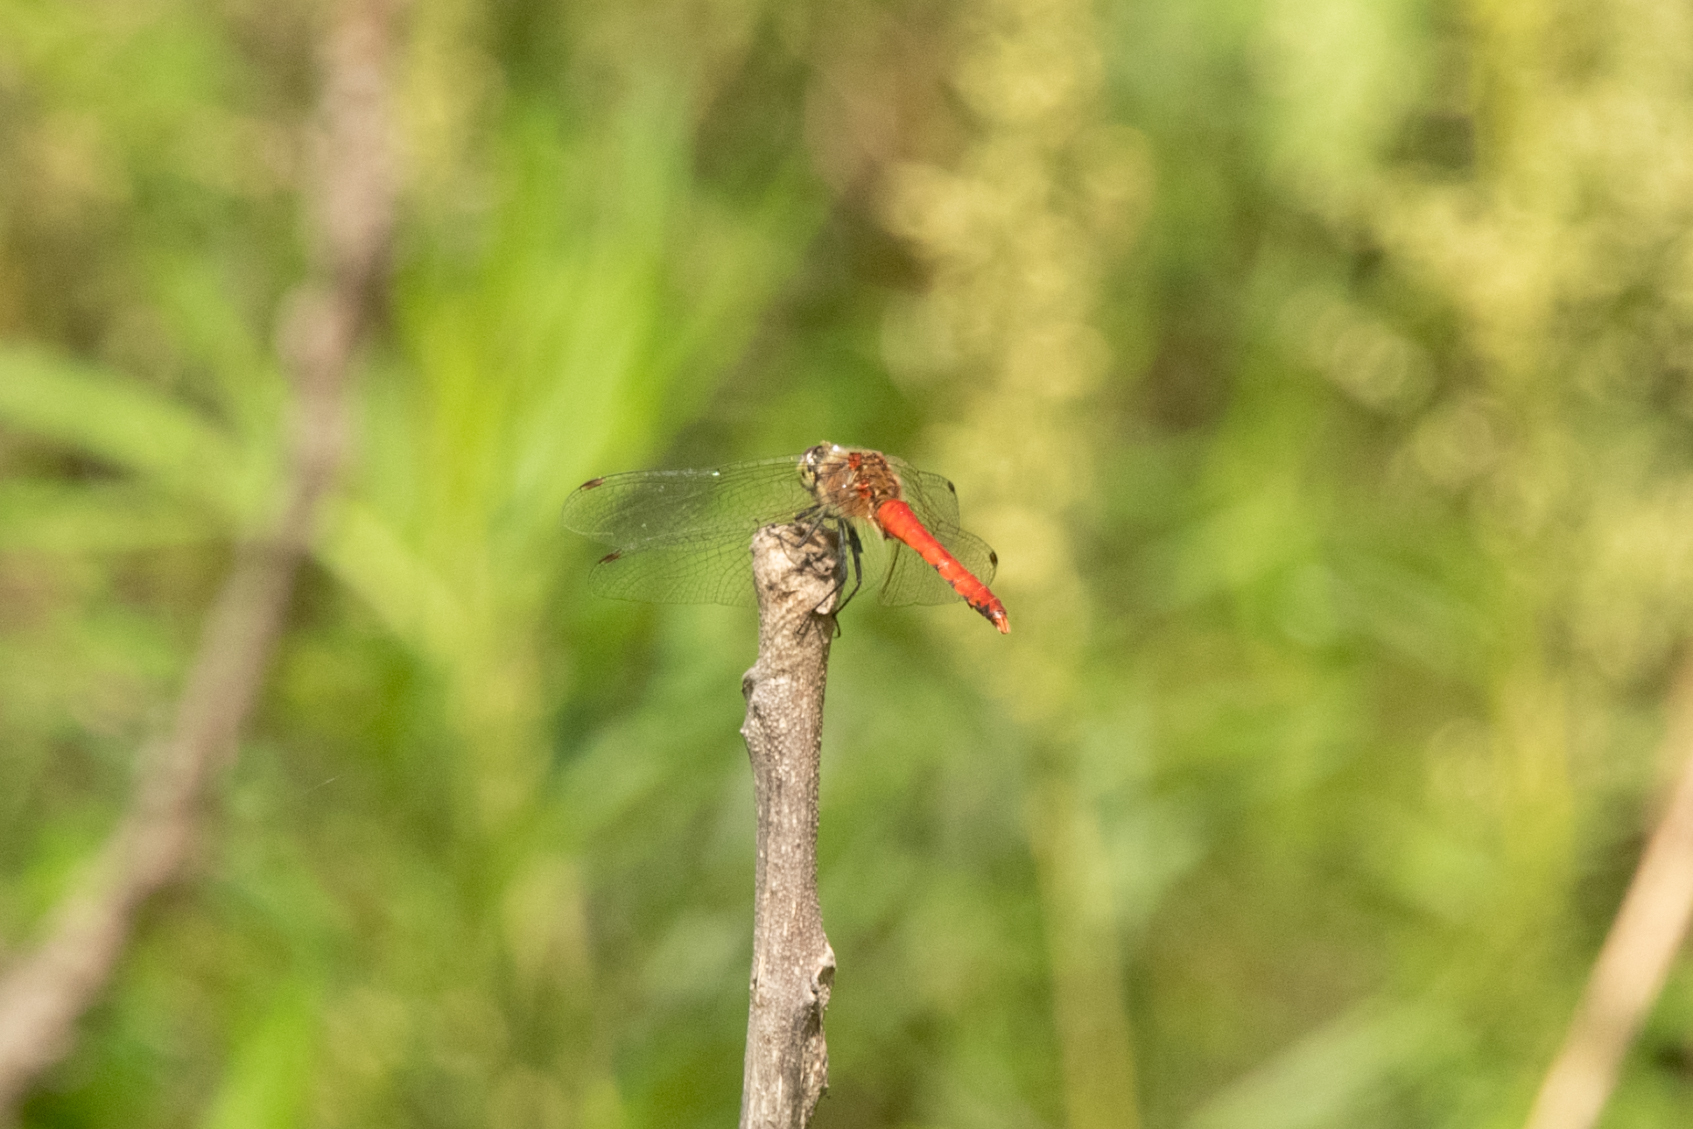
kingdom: Animalia
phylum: Arthropoda
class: Insecta
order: Odonata
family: Libellulidae
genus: Sympetrum
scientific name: Sympetrum cordulegaster
